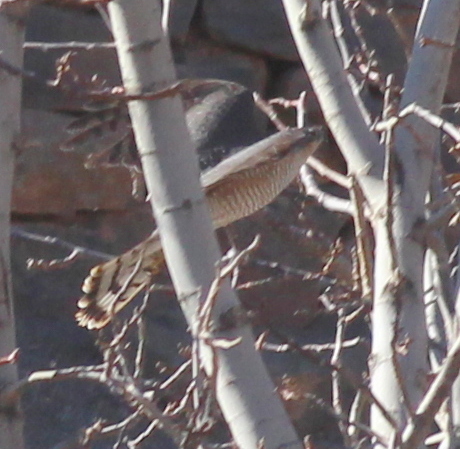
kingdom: Animalia
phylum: Chordata
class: Aves
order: Accipitriformes
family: Accipitridae
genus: Accipiter
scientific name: Accipiter nisus
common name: Eurasian sparrowhawk
